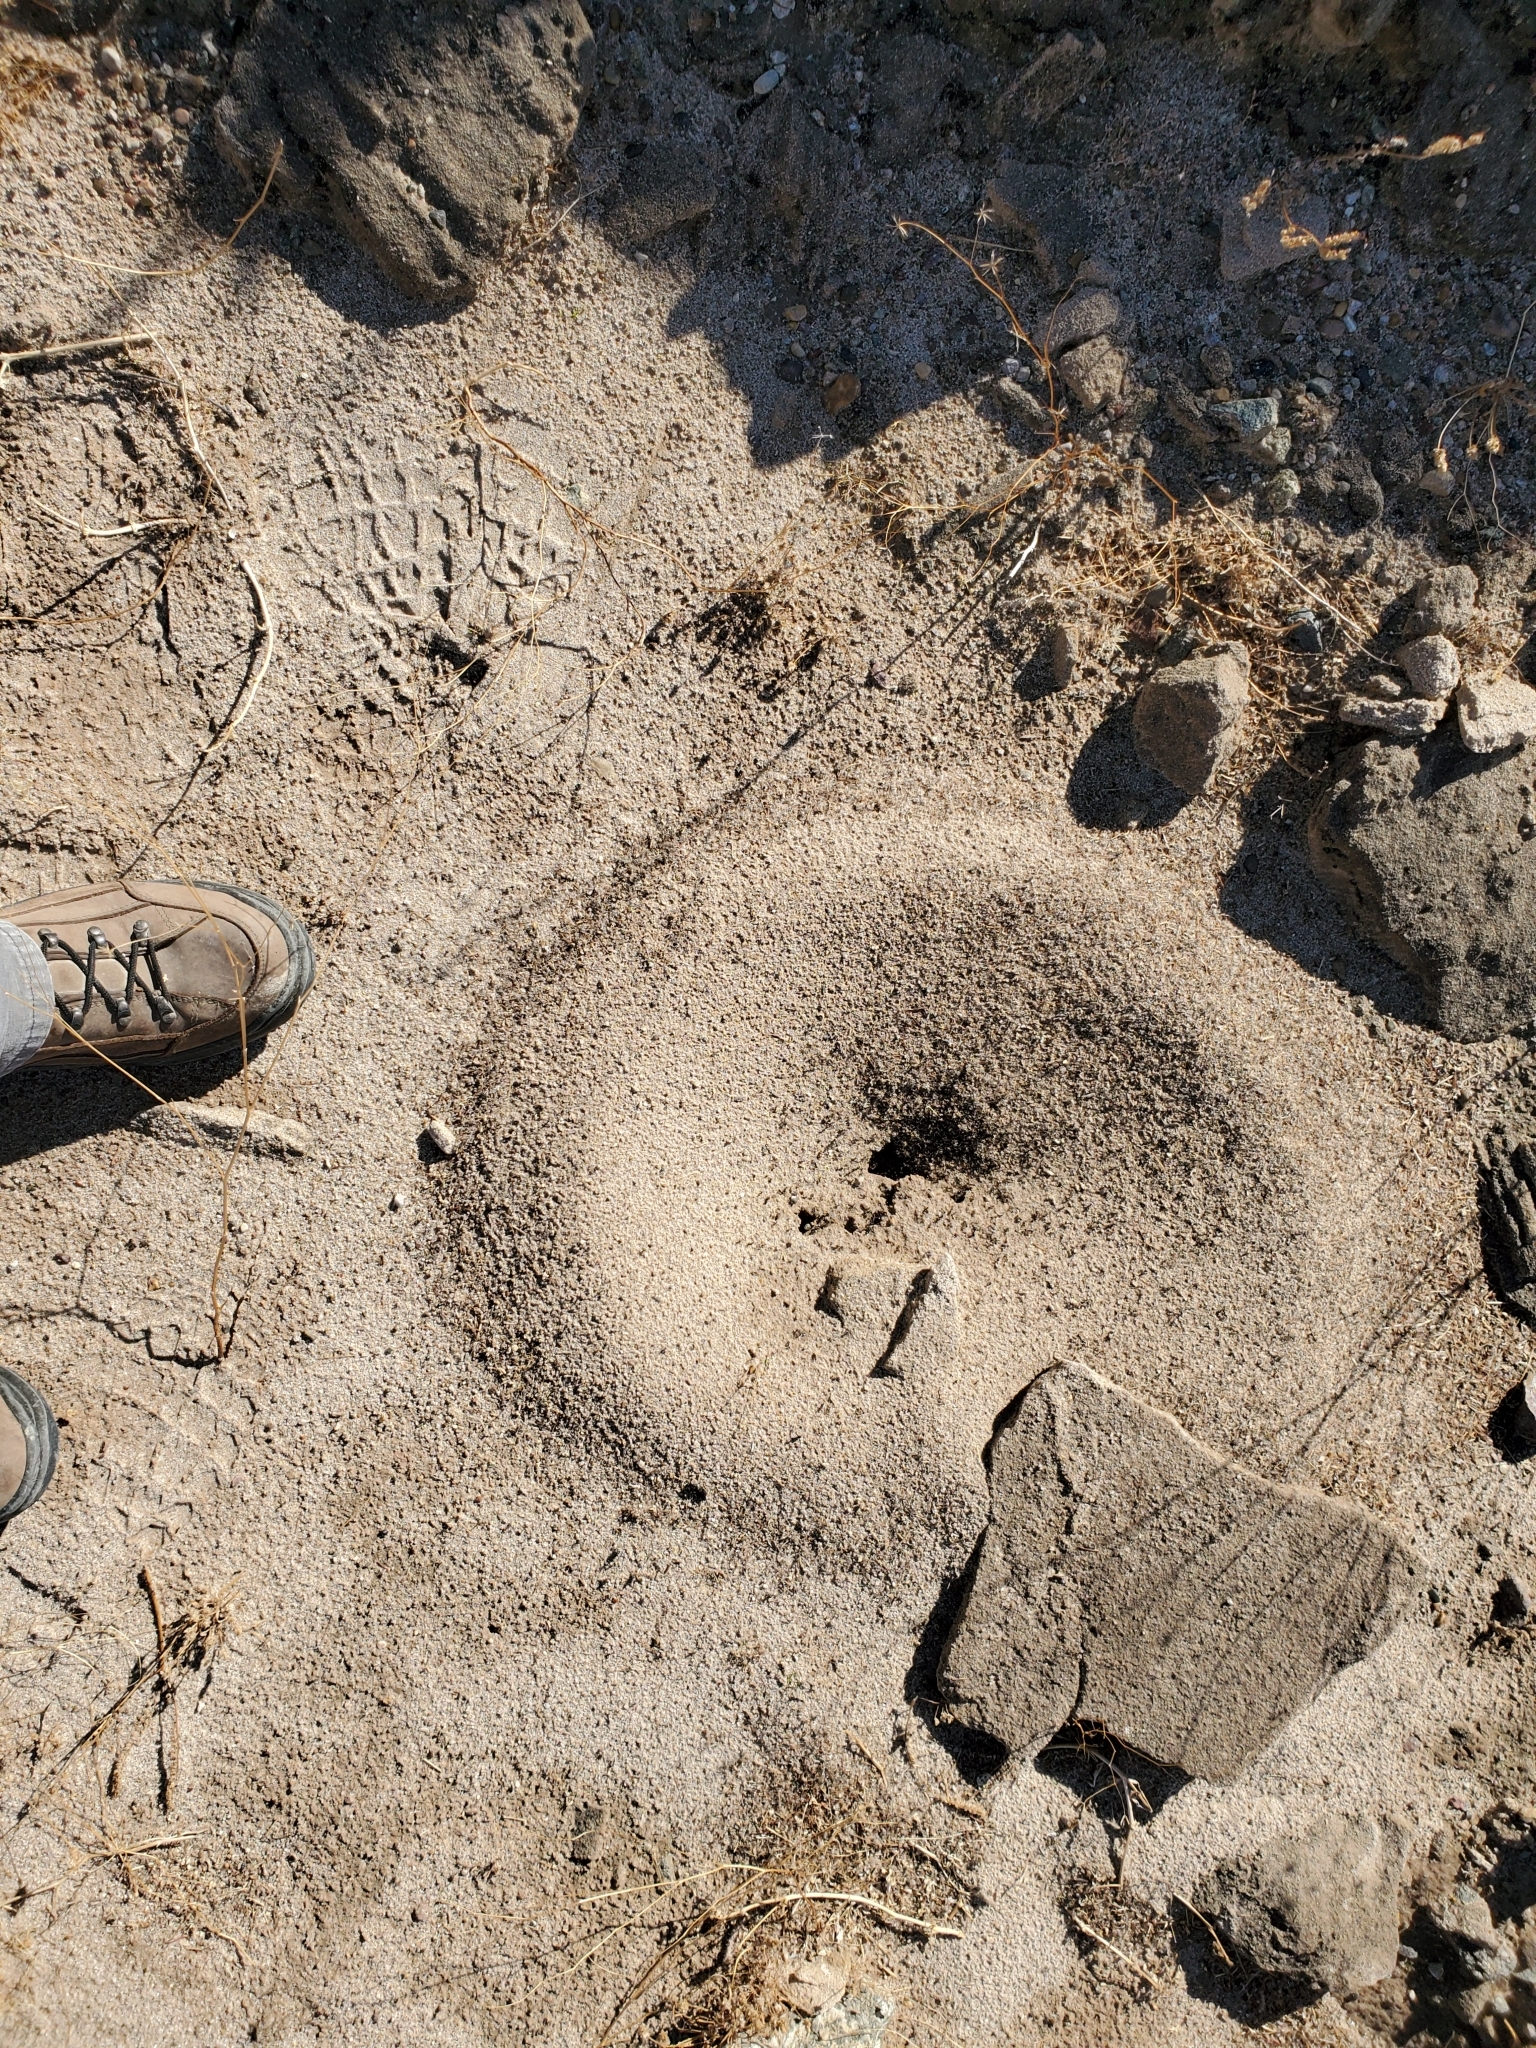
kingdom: Animalia
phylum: Arthropoda
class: Insecta
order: Hymenoptera
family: Formicidae
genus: Messor
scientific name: Messor pergandei
